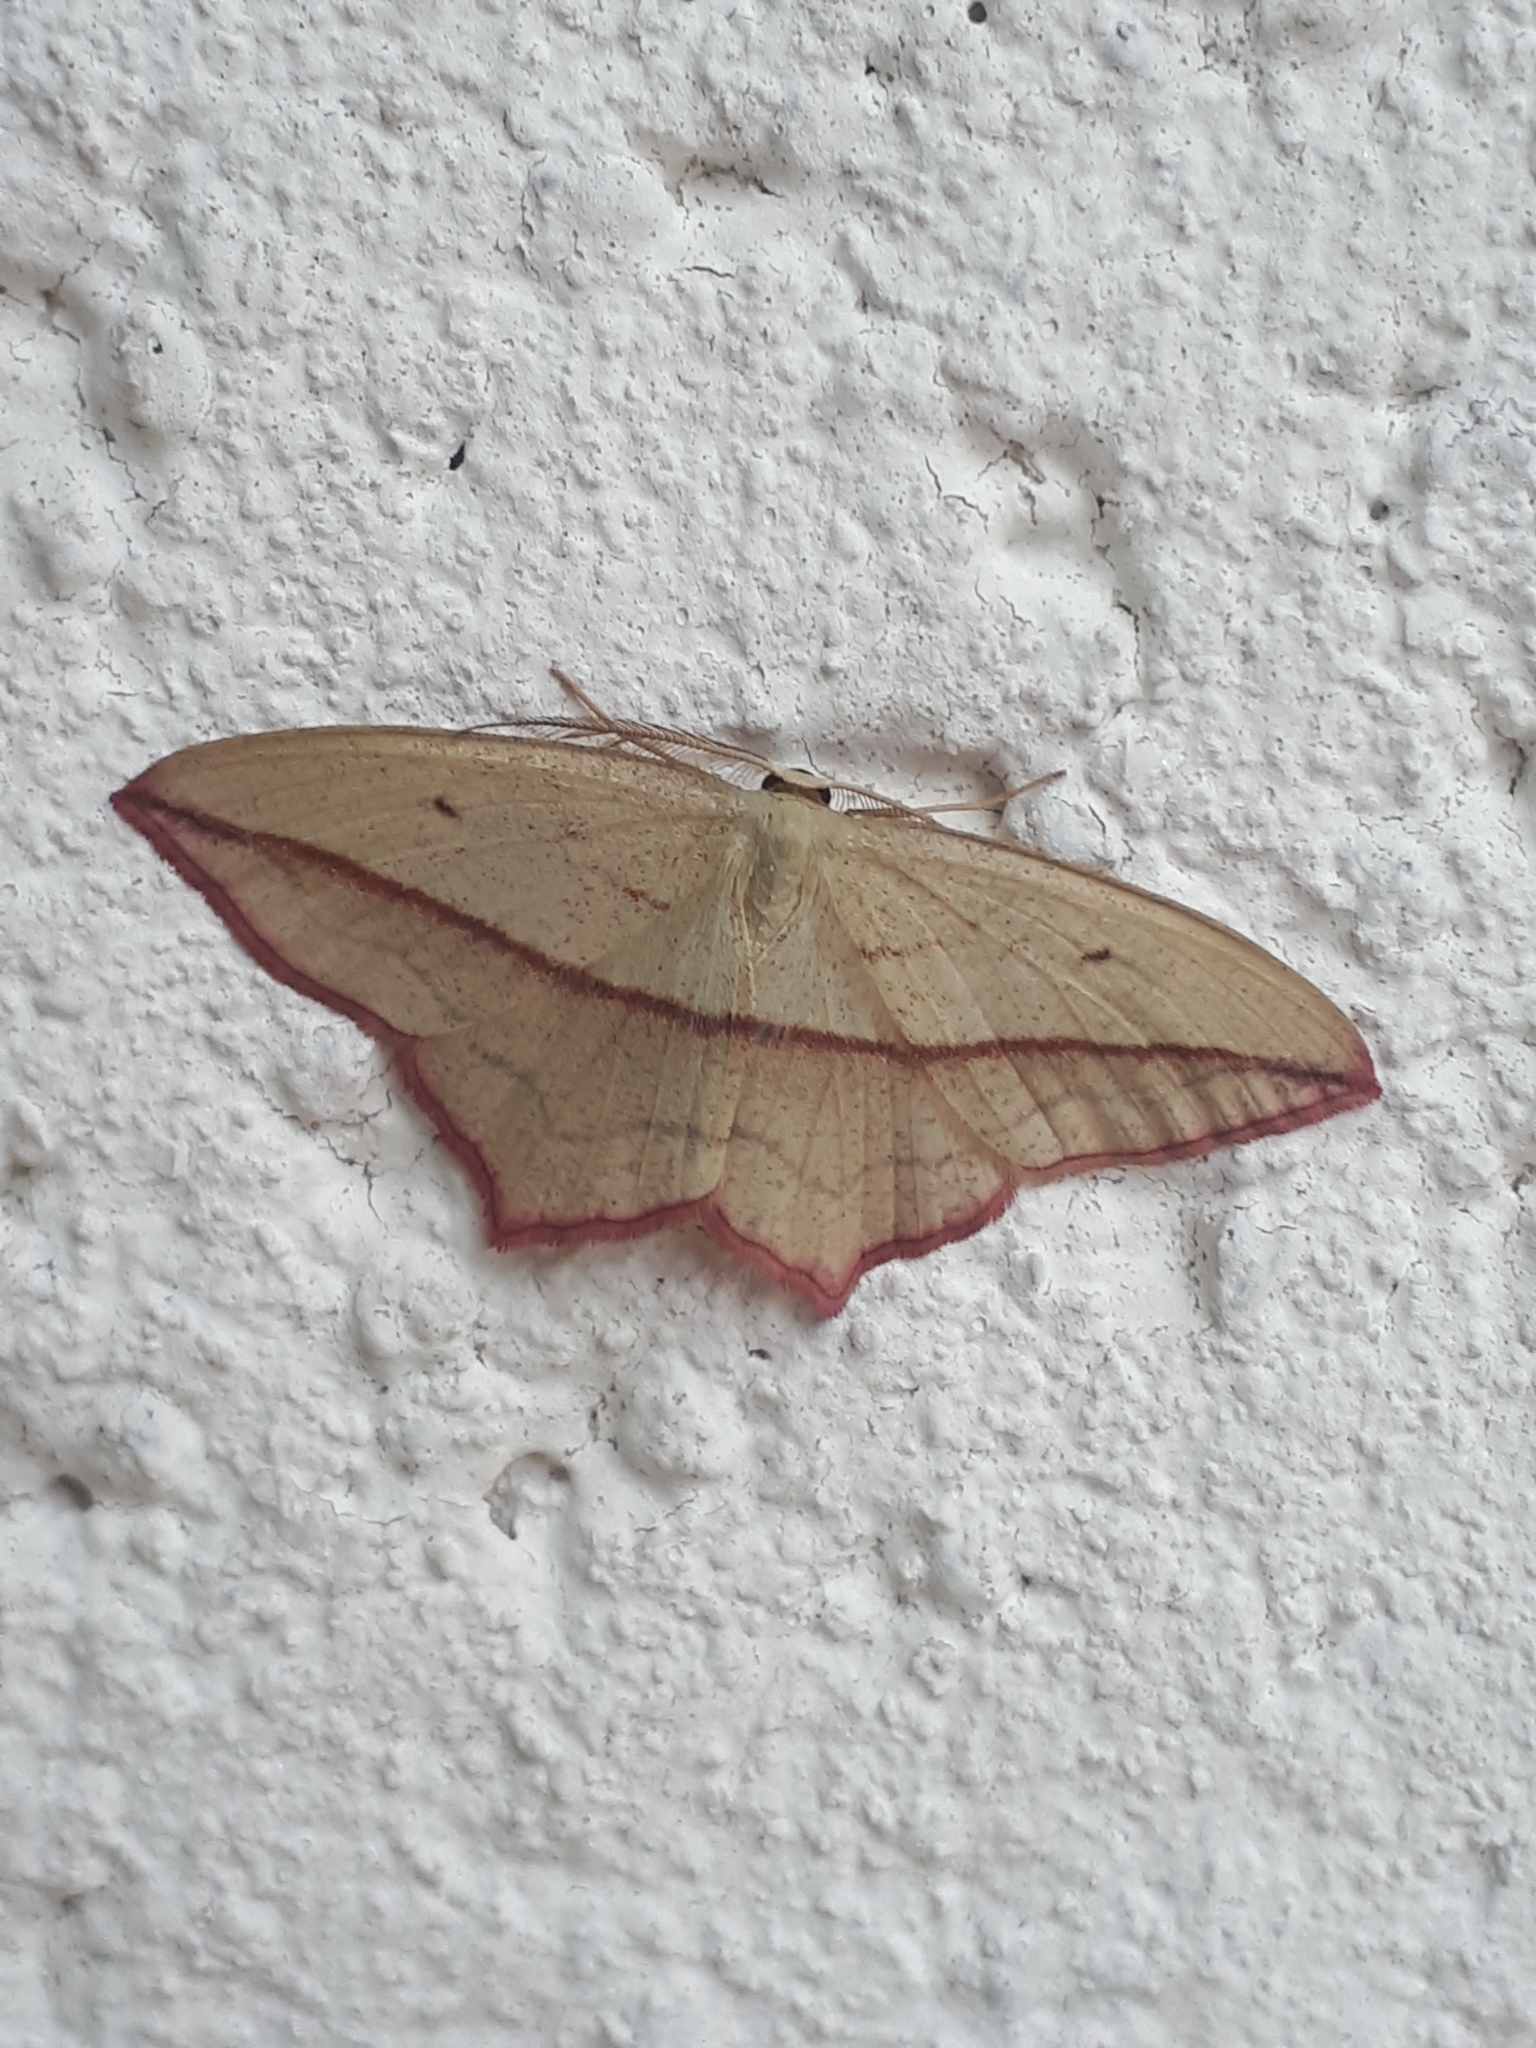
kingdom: Animalia
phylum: Arthropoda
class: Insecta
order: Lepidoptera
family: Geometridae
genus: Timandra
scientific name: Timandra comae
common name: Blood-vein
